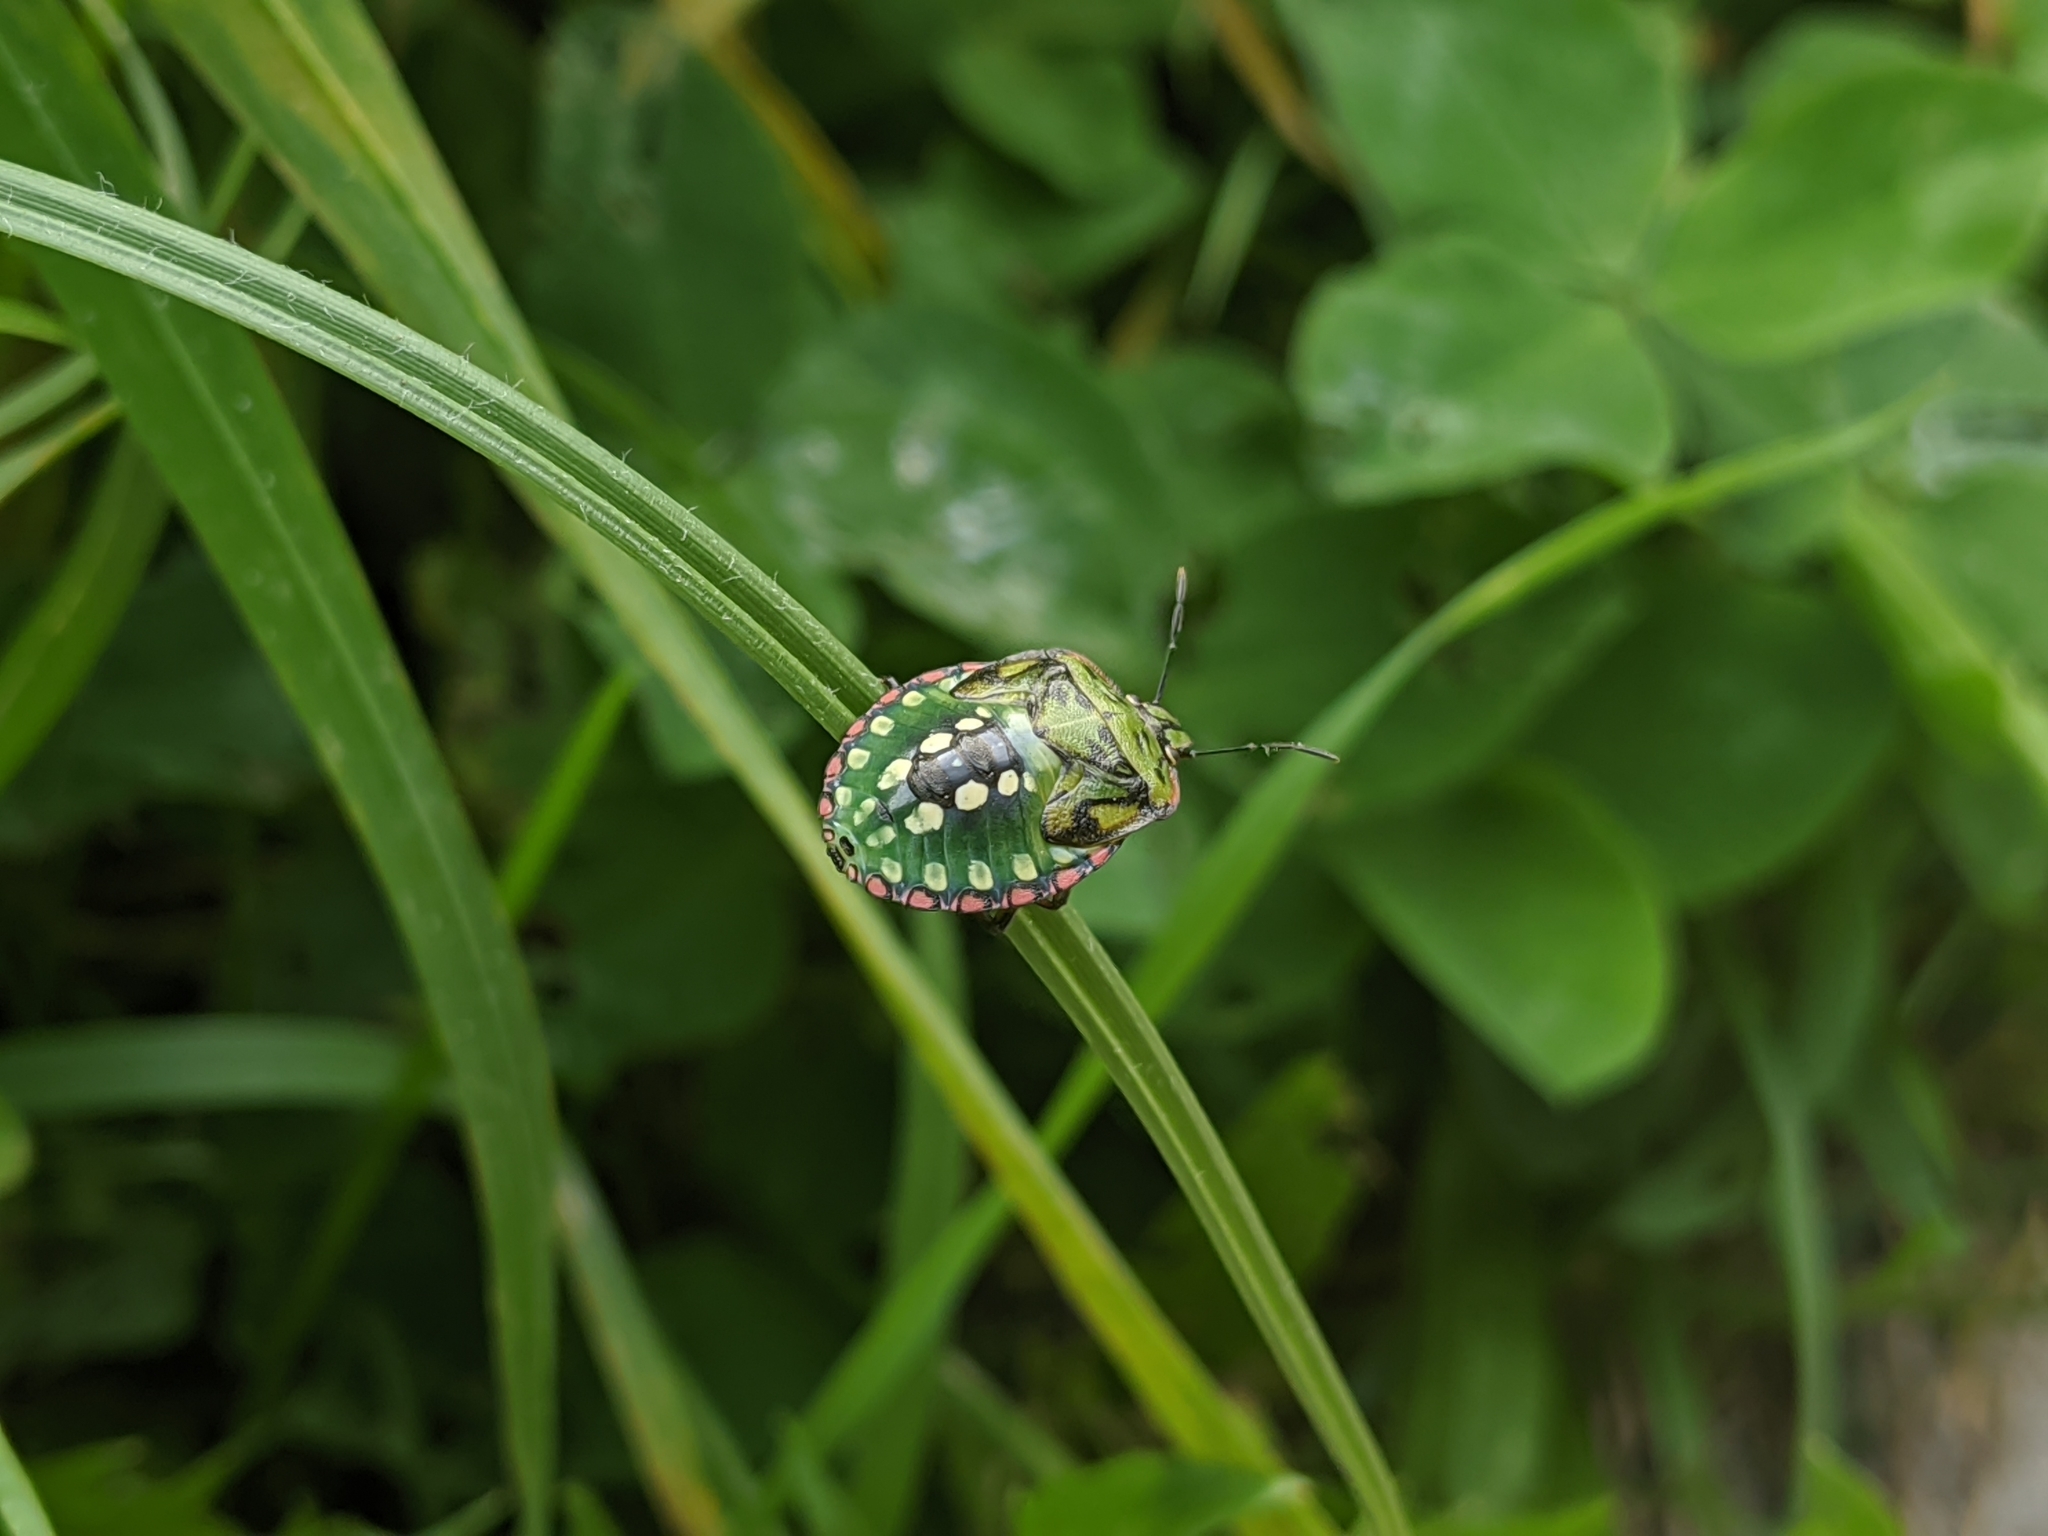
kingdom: Animalia
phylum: Arthropoda
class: Insecta
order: Hemiptera
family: Pentatomidae
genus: Nezara
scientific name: Nezara viridula
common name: Southern green stink bug
